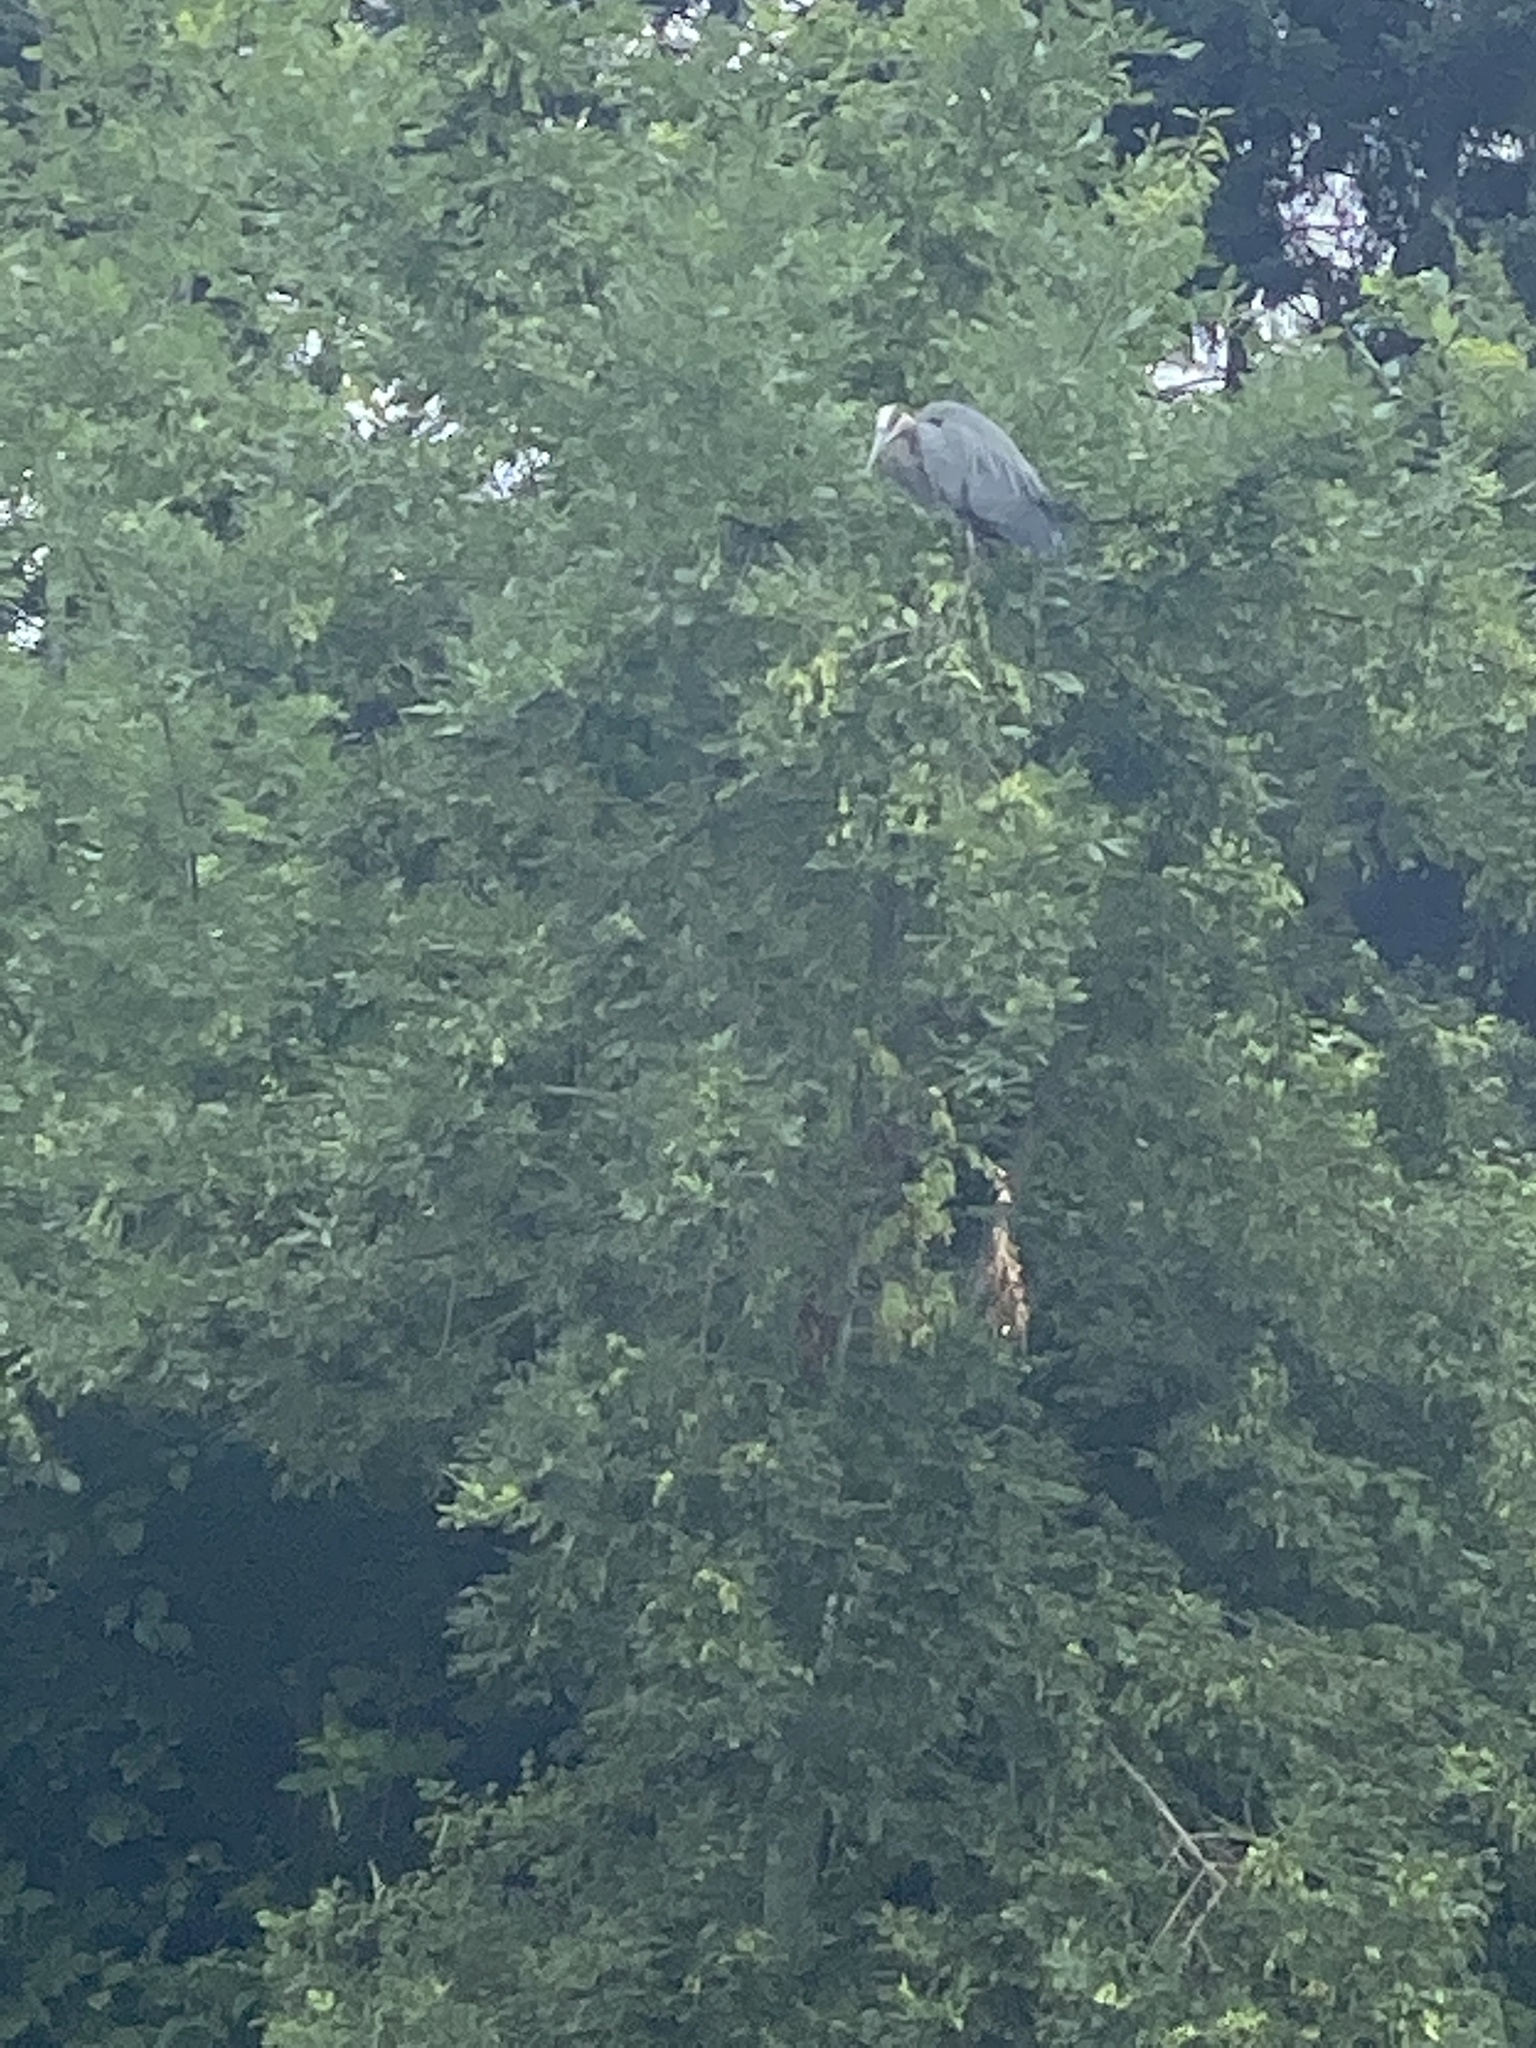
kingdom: Animalia
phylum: Chordata
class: Aves
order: Pelecaniformes
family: Ardeidae
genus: Ardea
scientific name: Ardea herodias
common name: Great blue heron
